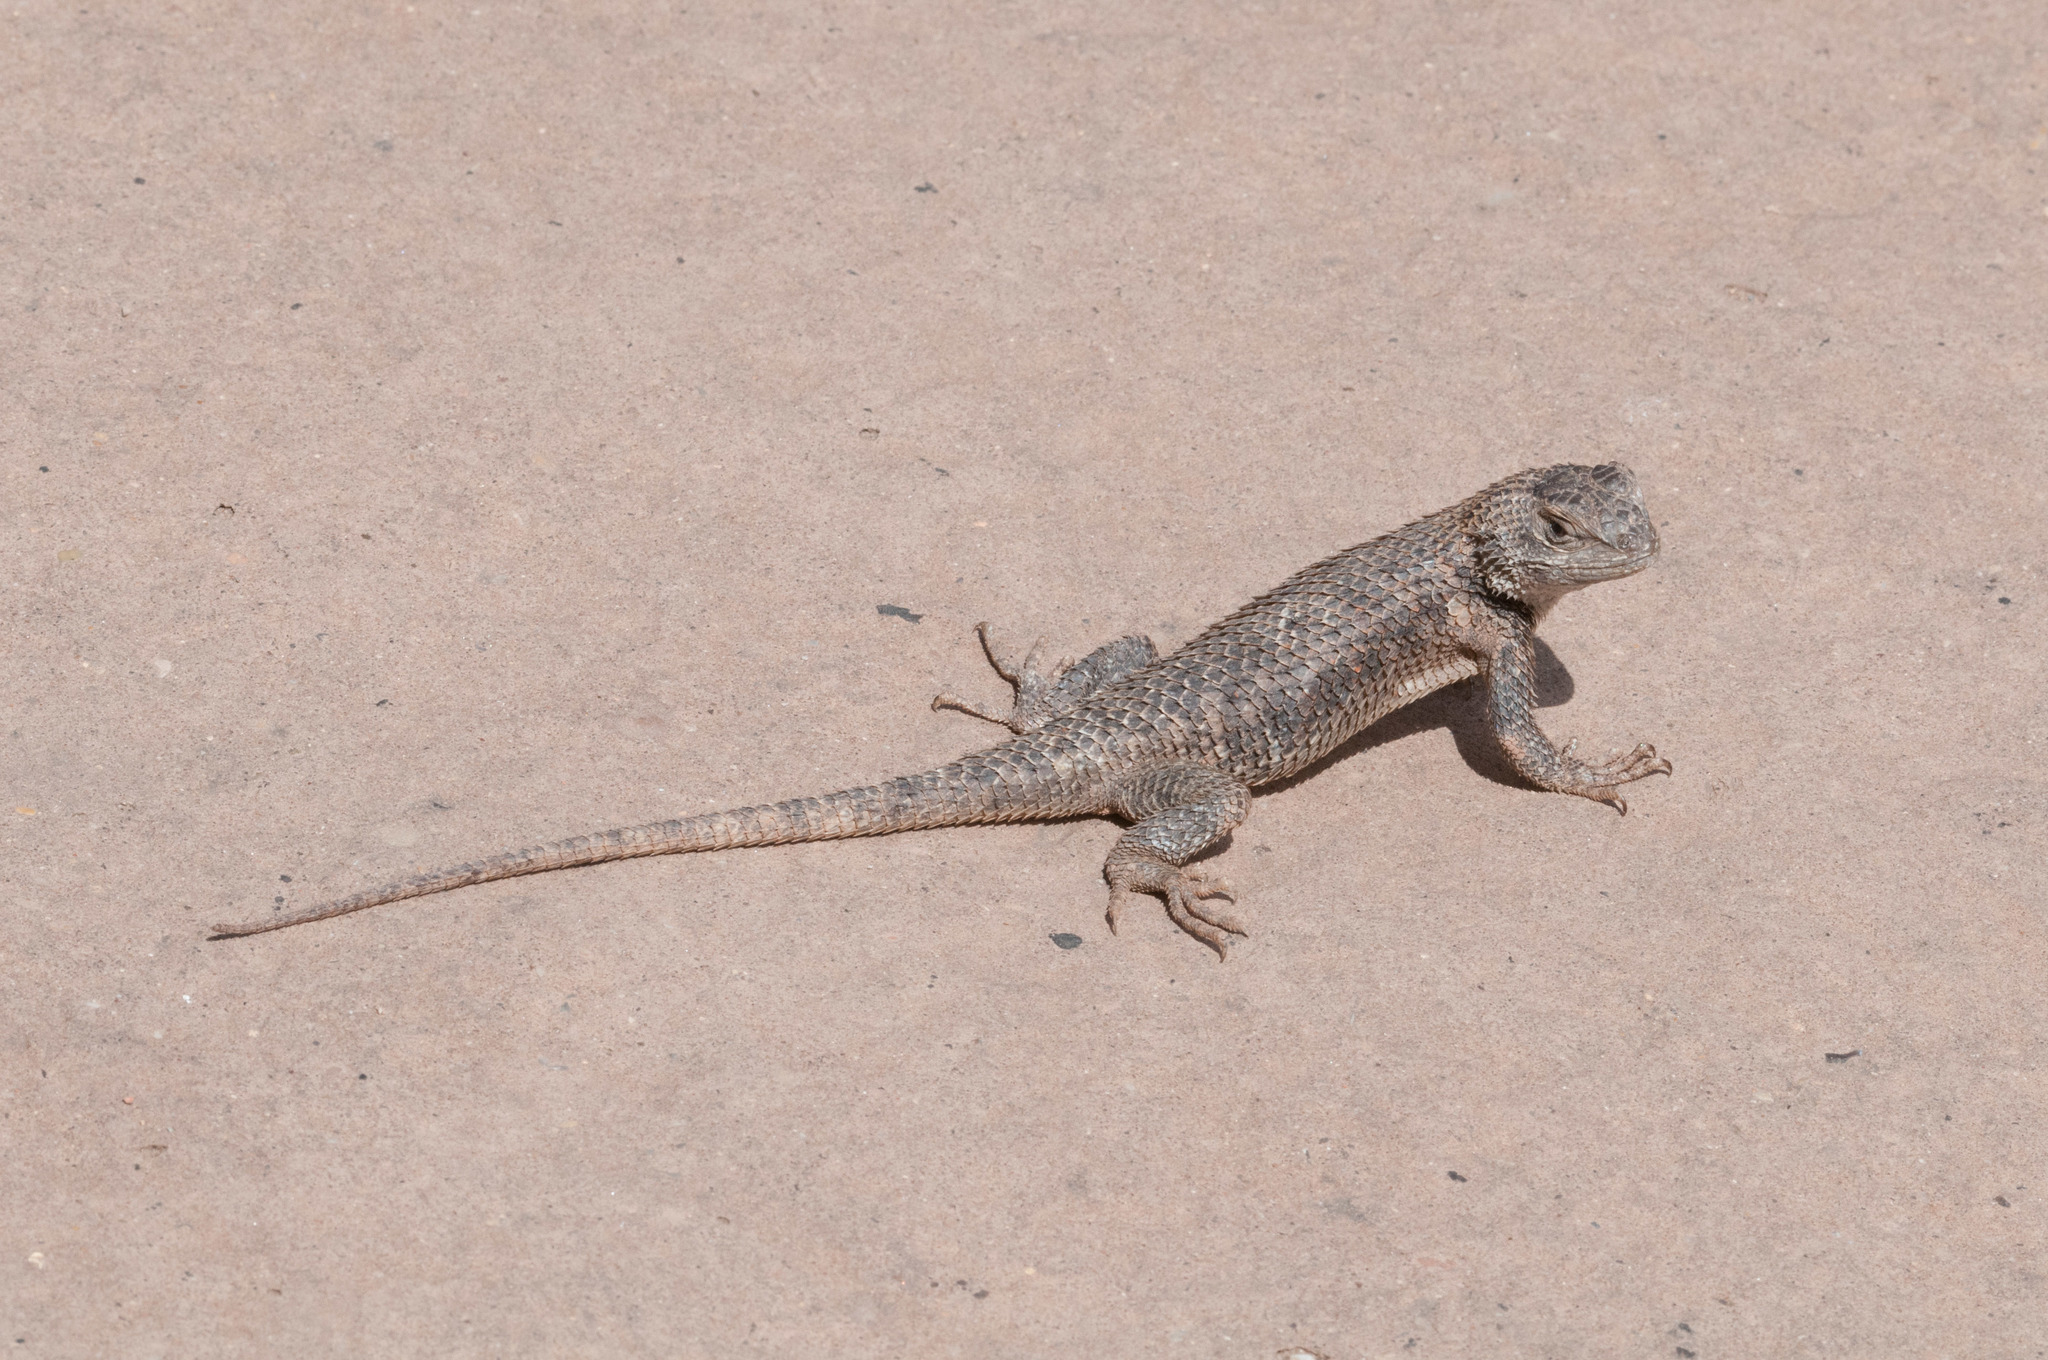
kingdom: Animalia
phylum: Chordata
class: Squamata
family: Phrynosomatidae
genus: Sceloporus
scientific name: Sceloporus uniformis
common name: Yellow-backed spiny lizard
